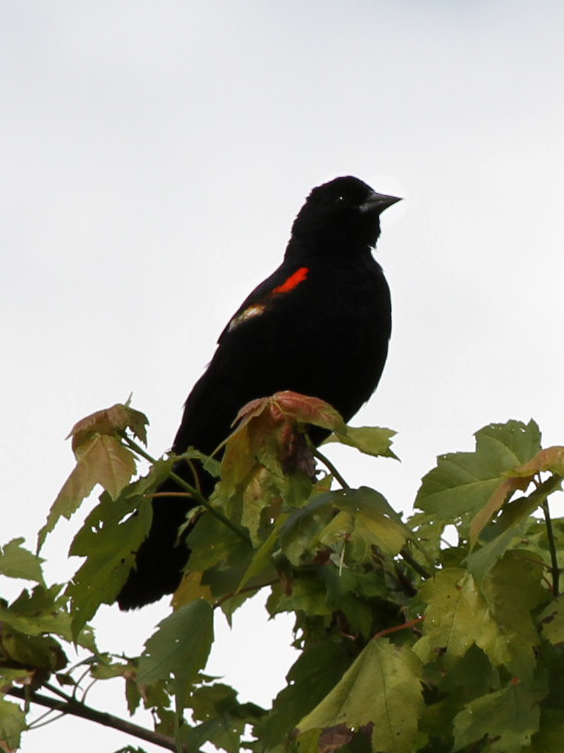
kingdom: Animalia
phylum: Chordata
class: Aves
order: Passeriformes
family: Icteridae
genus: Agelaius
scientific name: Agelaius phoeniceus
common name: Red-winged blackbird
